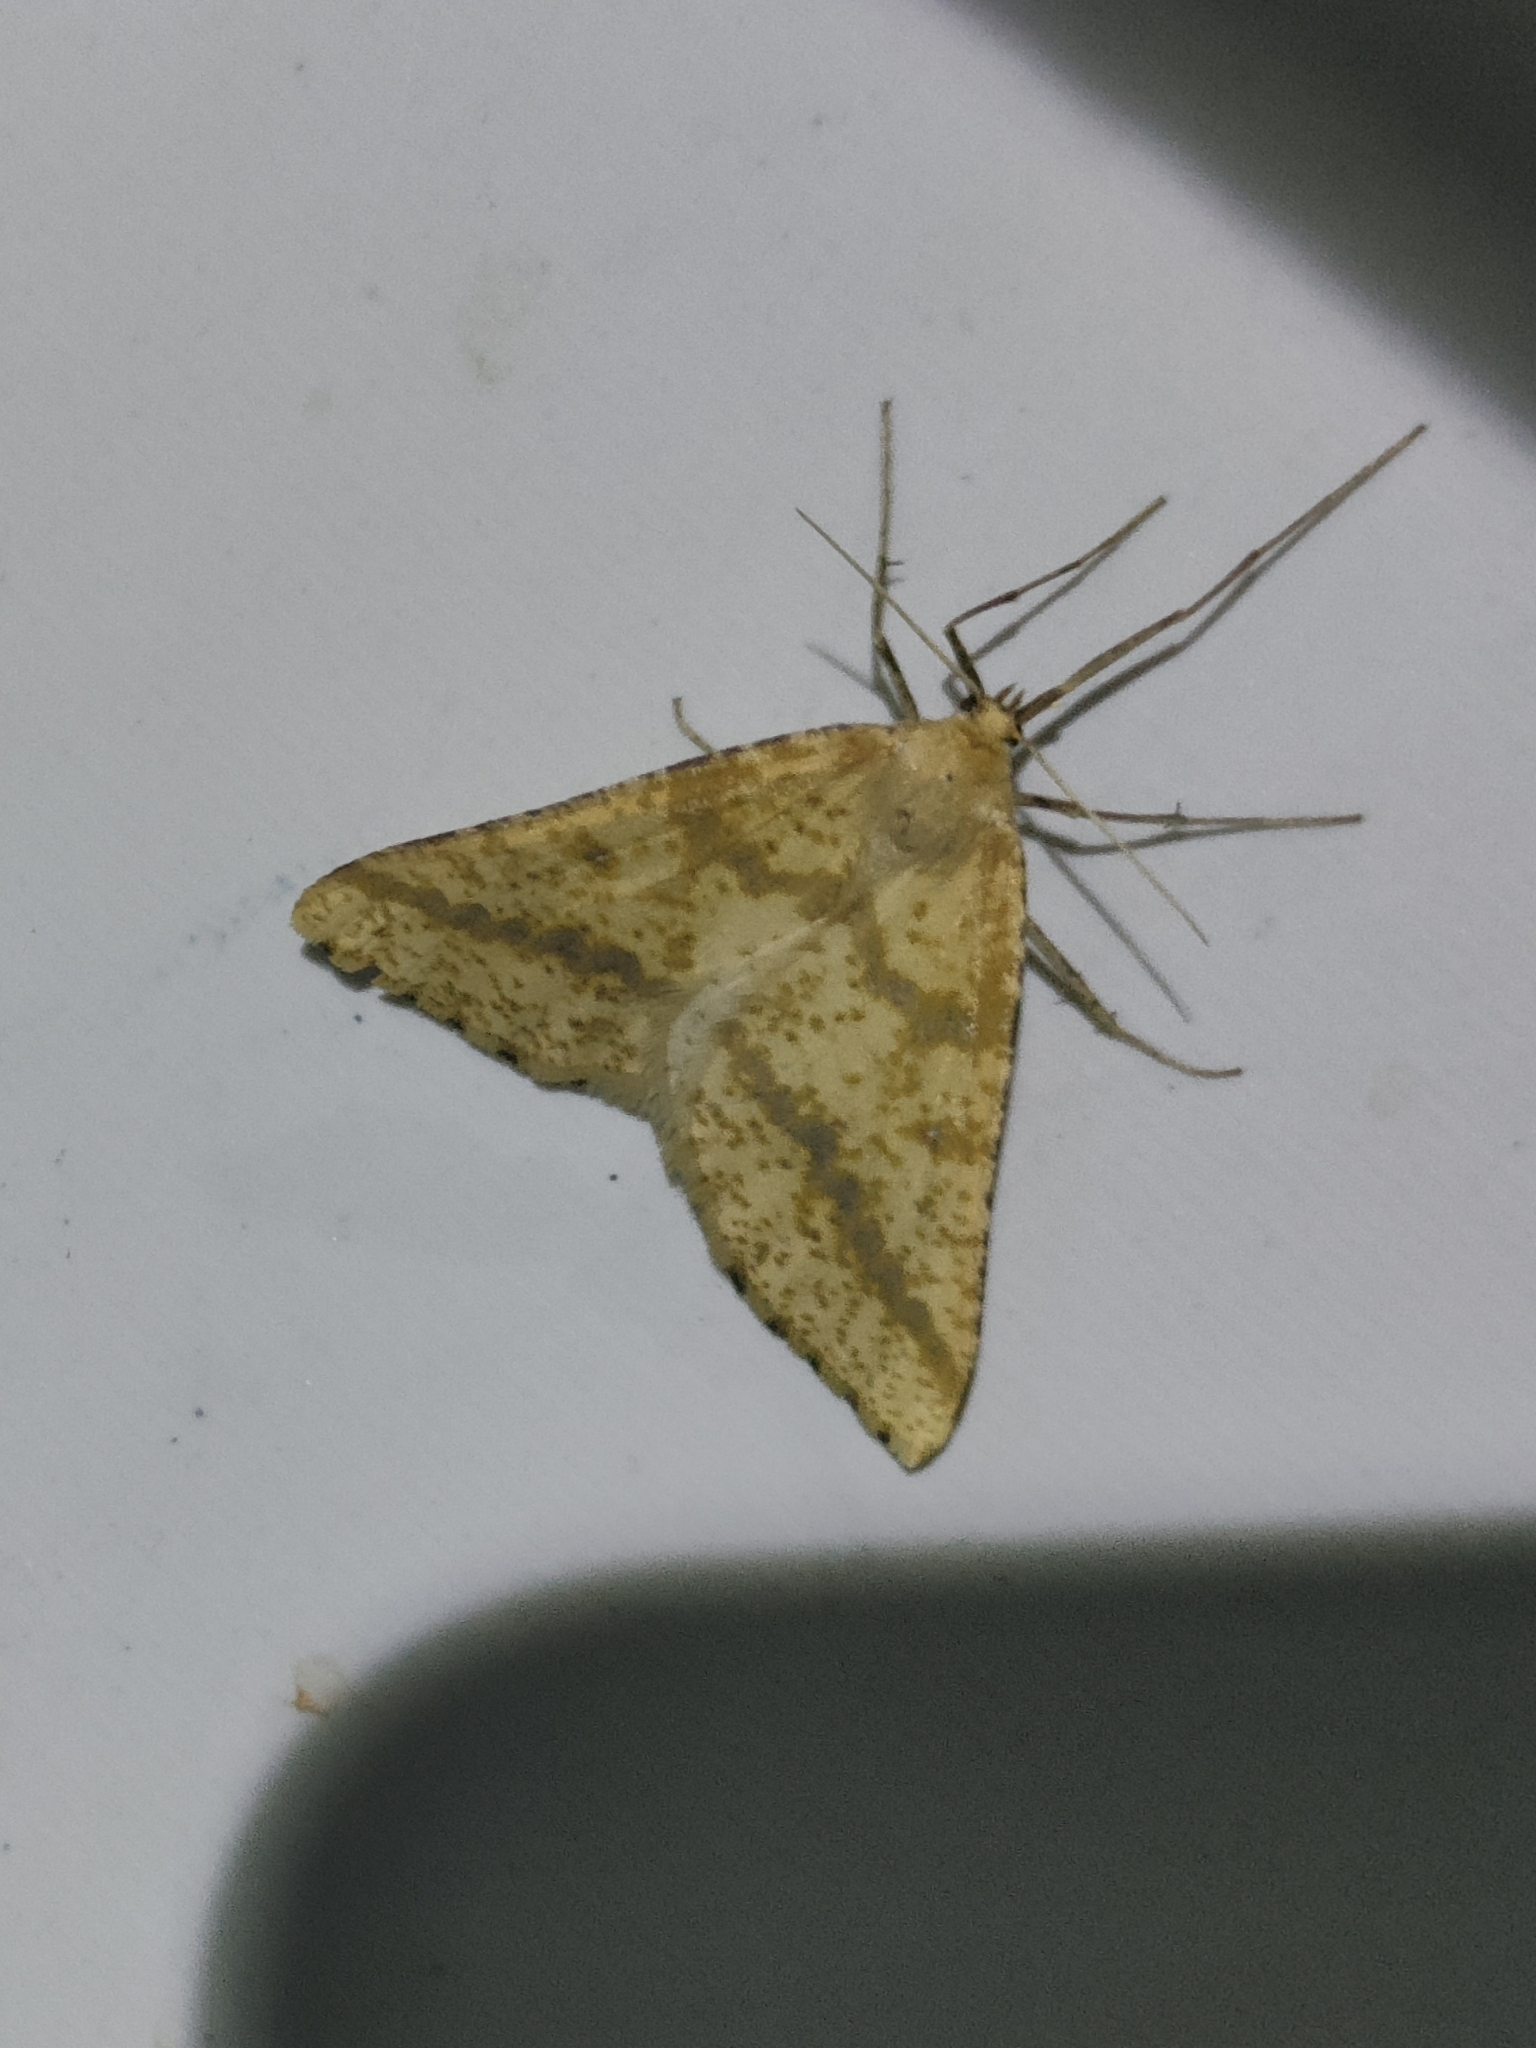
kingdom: Animalia
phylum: Arthropoda
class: Insecta
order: Lepidoptera
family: Geometridae
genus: Aspitates
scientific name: Aspitates ochrearia
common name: Yellow belle
